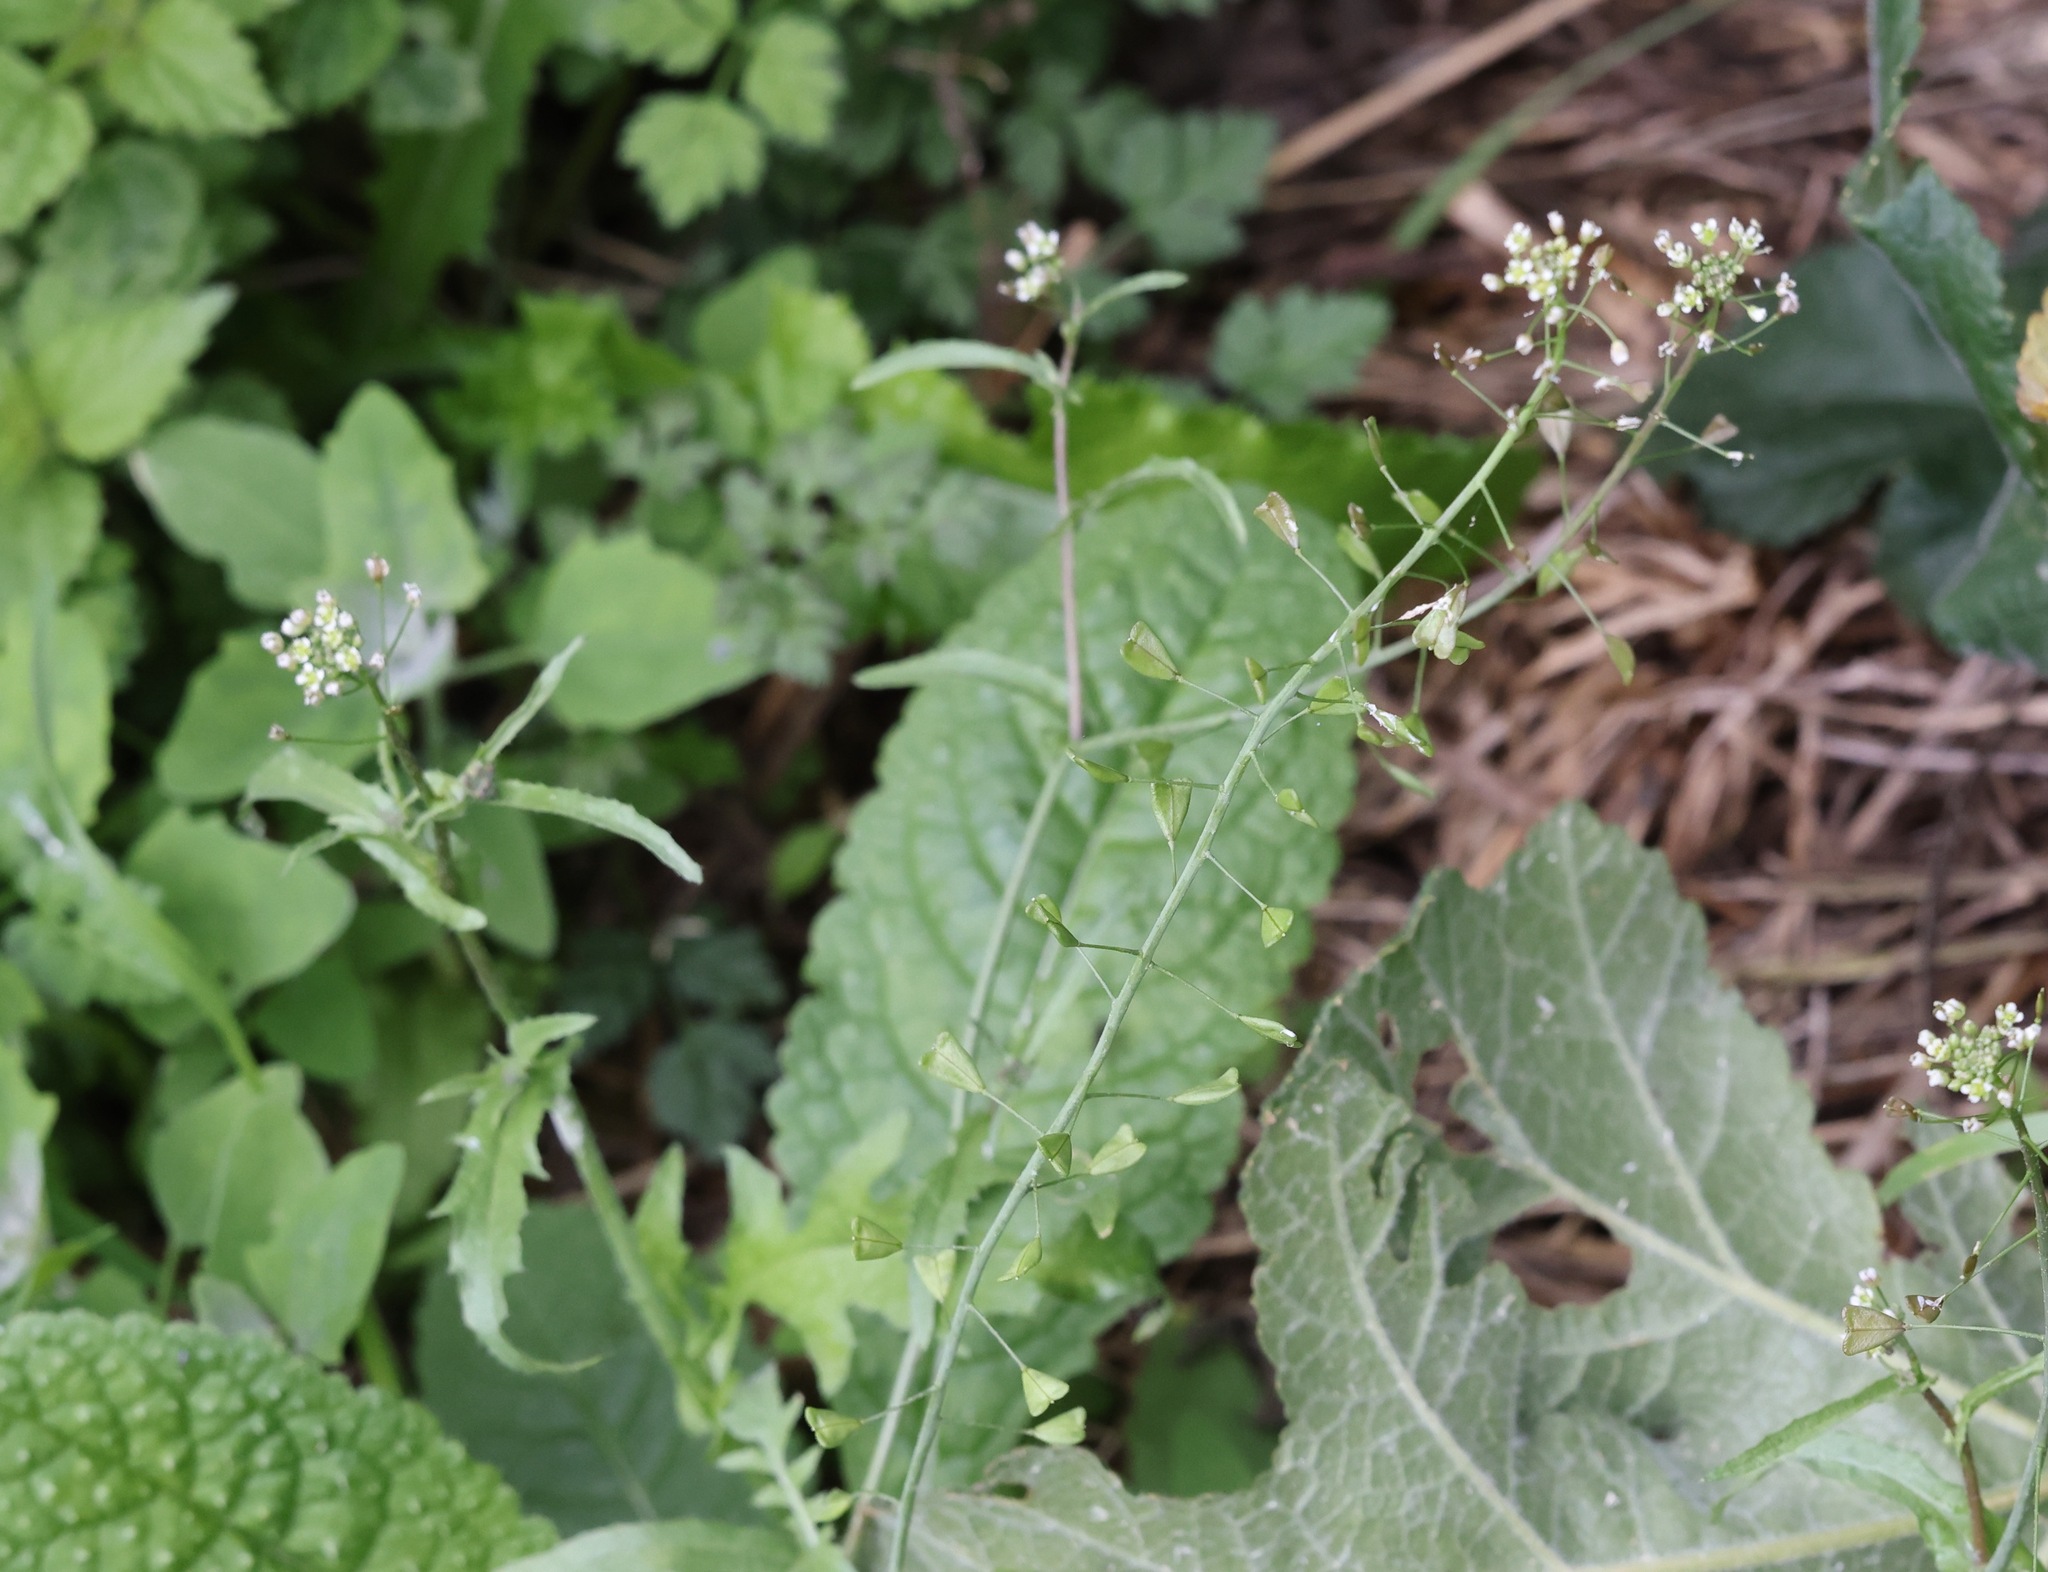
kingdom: Plantae
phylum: Tracheophyta
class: Magnoliopsida
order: Brassicales
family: Brassicaceae
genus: Capsella
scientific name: Capsella bursa-pastoris
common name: Shepherd's purse
